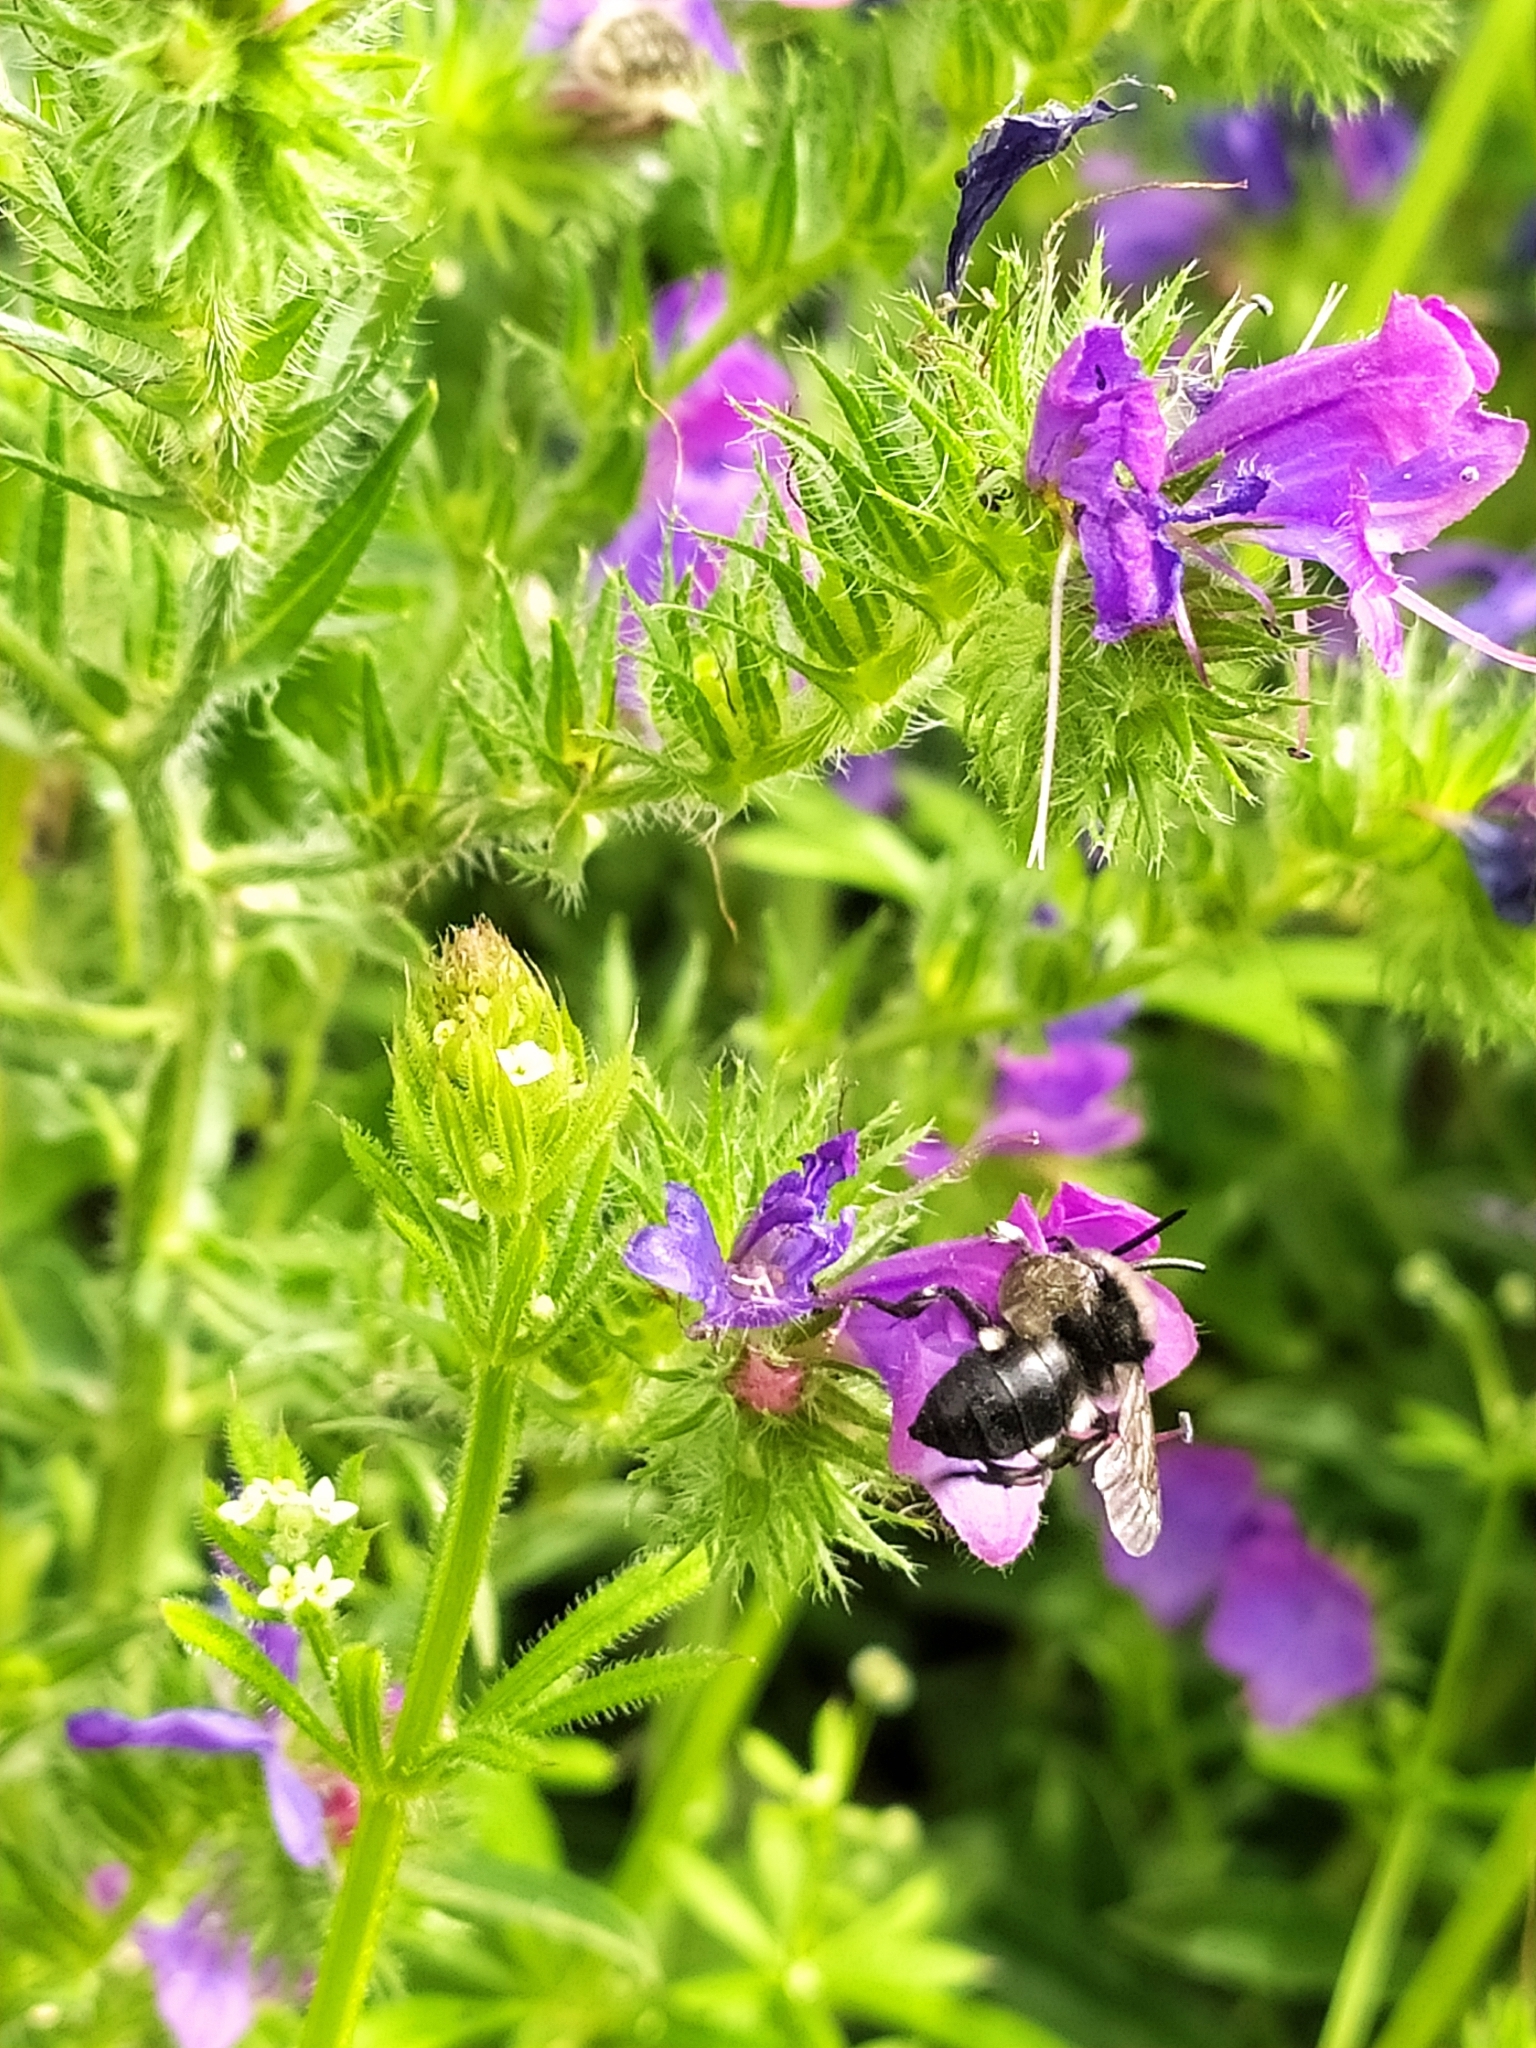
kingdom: Plantae
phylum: Tracheophyta
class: Magnoliopsida
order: Boraginales
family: Boraginaceae
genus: Echium
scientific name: Echium plantagineum
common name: Purple viper's-bugloss
